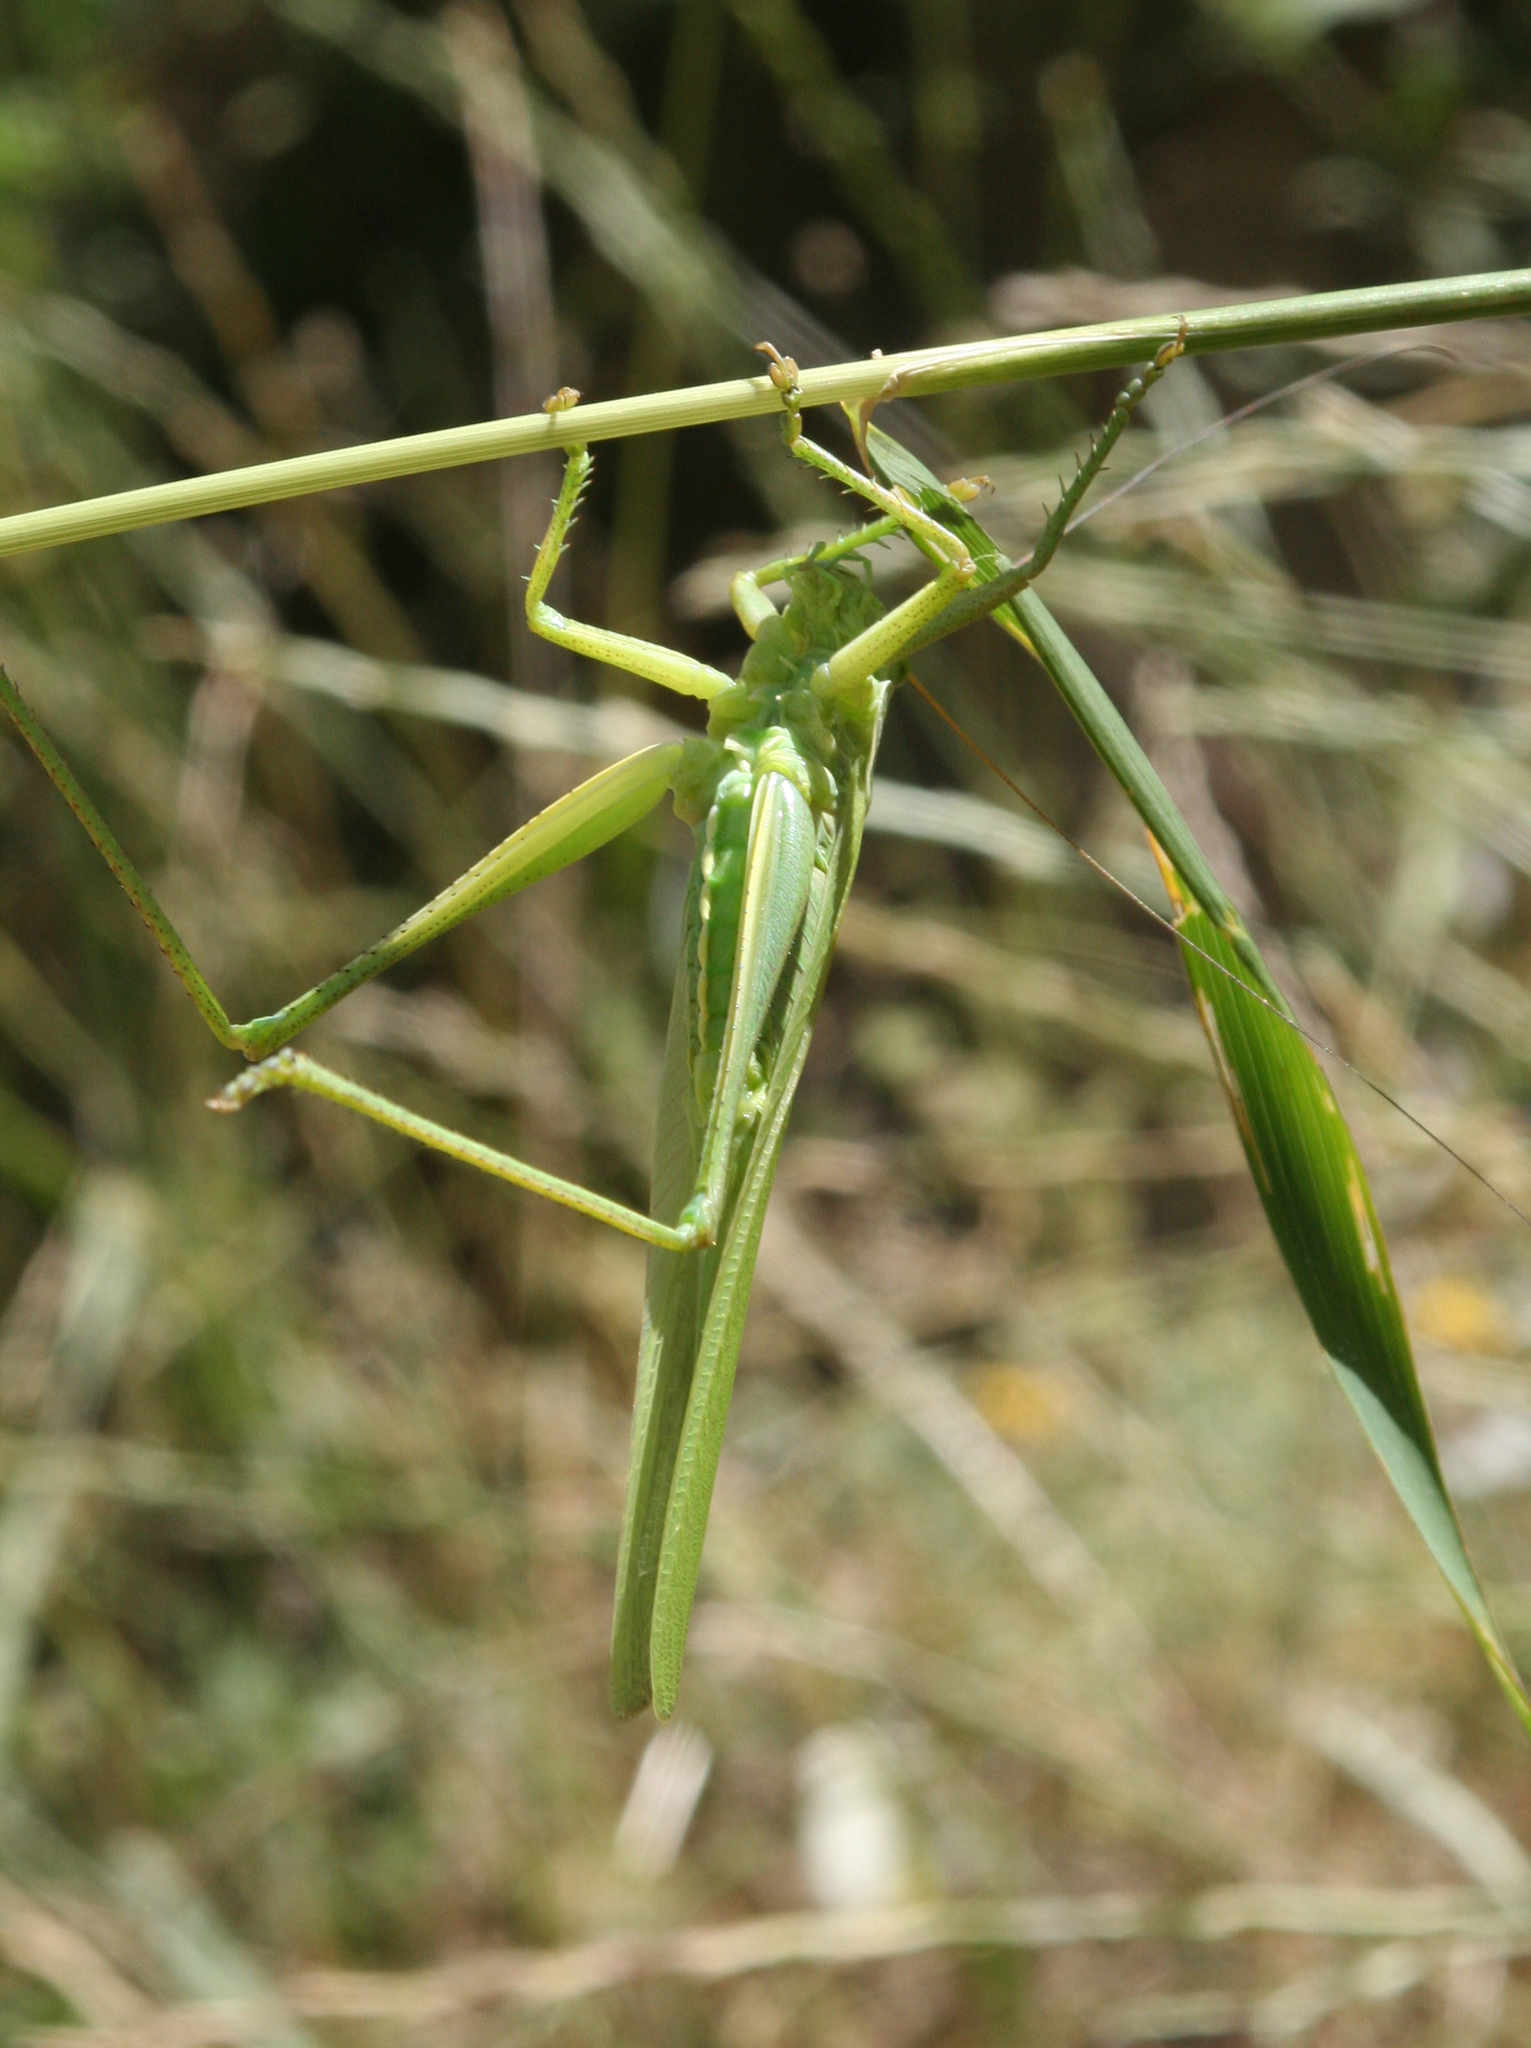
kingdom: Animalia
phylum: Arthropoda
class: Insecta
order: Orthoptera
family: Tettigoniidae
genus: Tettigonia
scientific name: Tettigonia viridissima
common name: Great green bush-cricket
